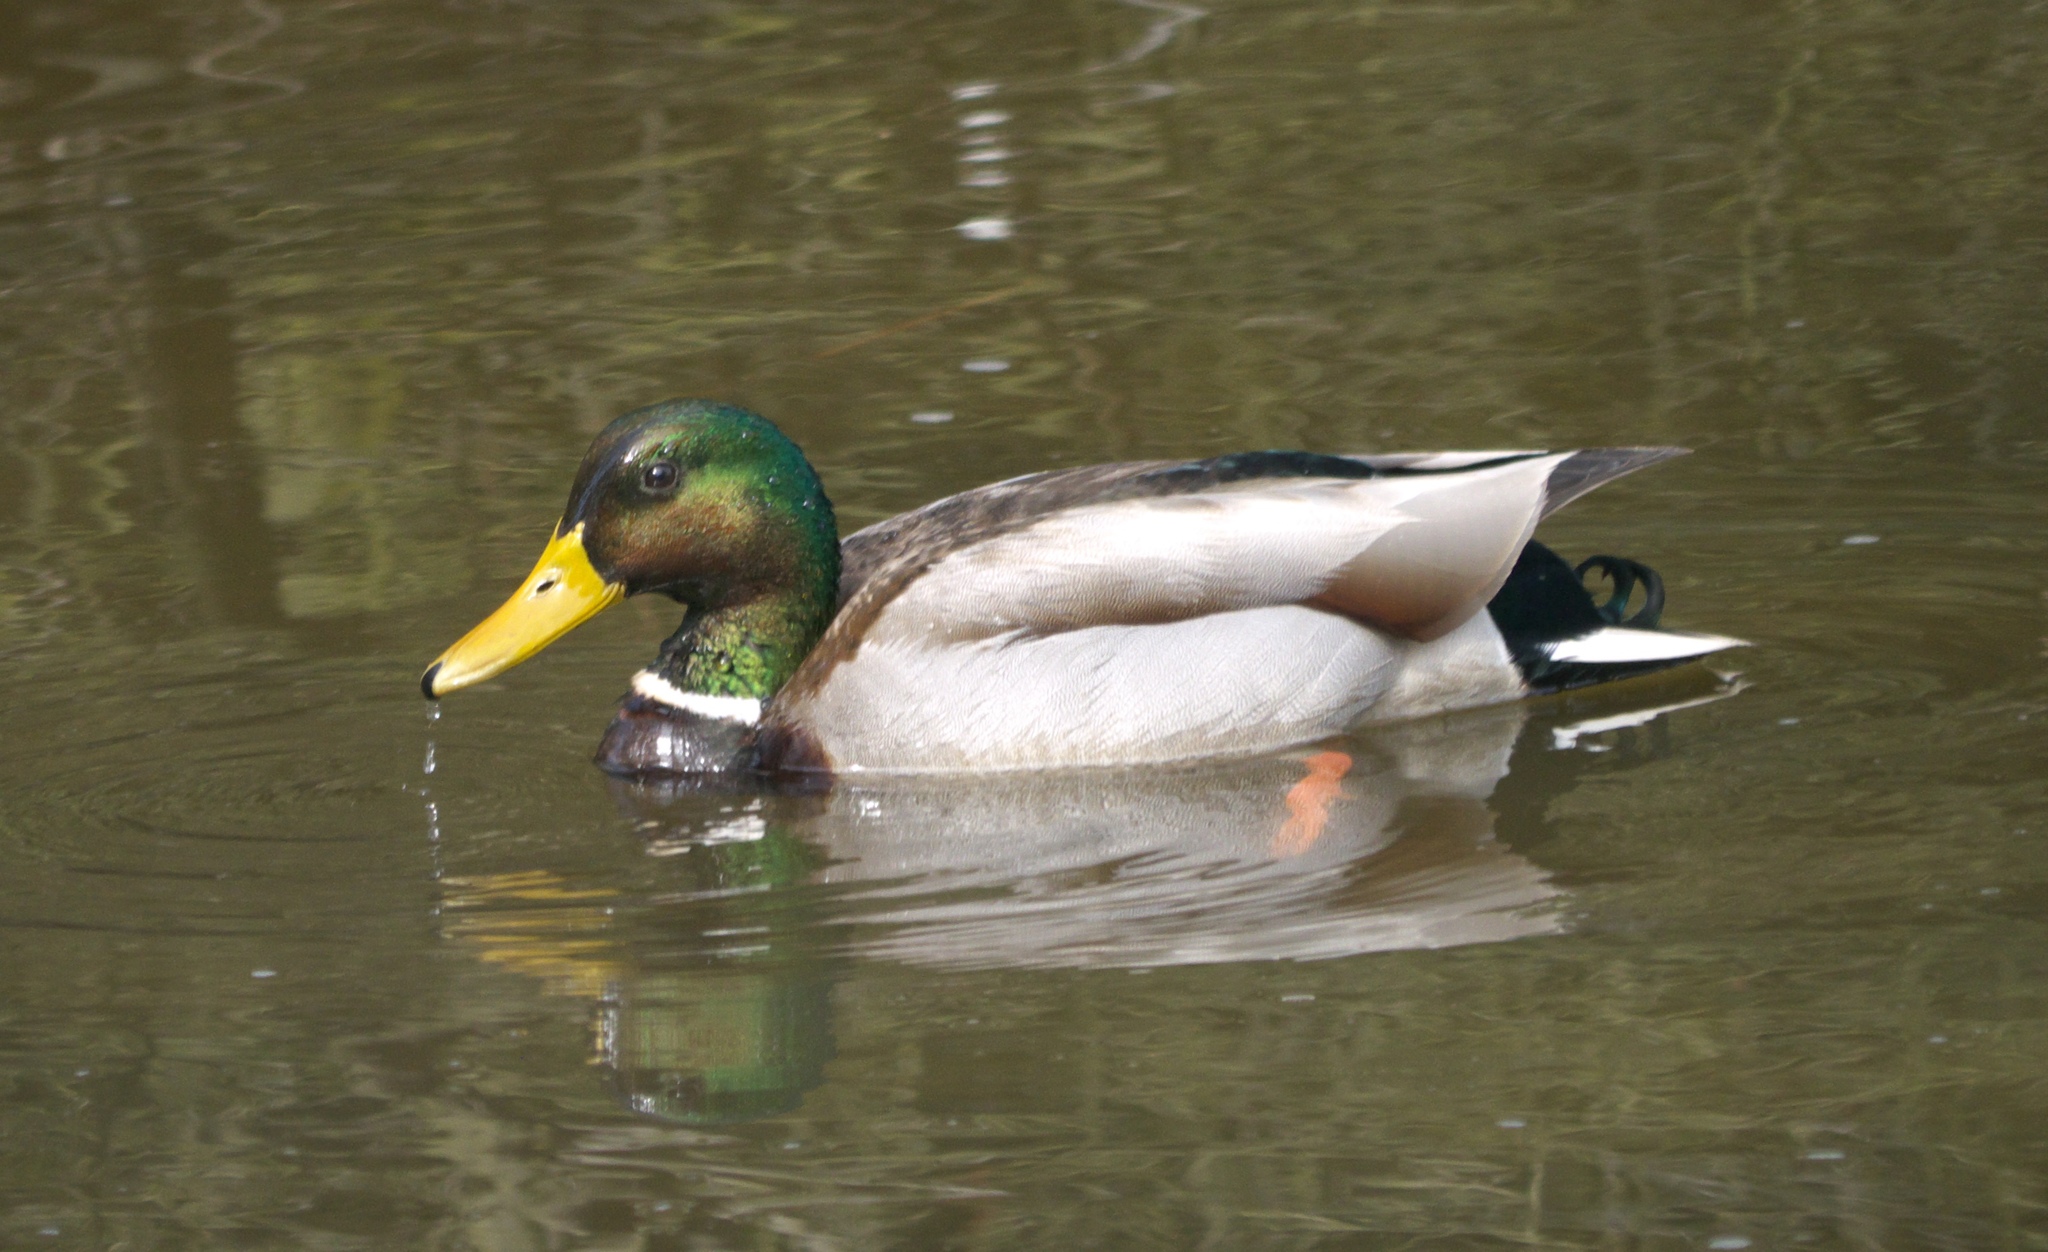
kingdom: Animalia
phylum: Chordata
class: Aves
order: Anseriformes
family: Anatidae
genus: Anas
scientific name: Anas platyrhynchos
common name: Mallard
